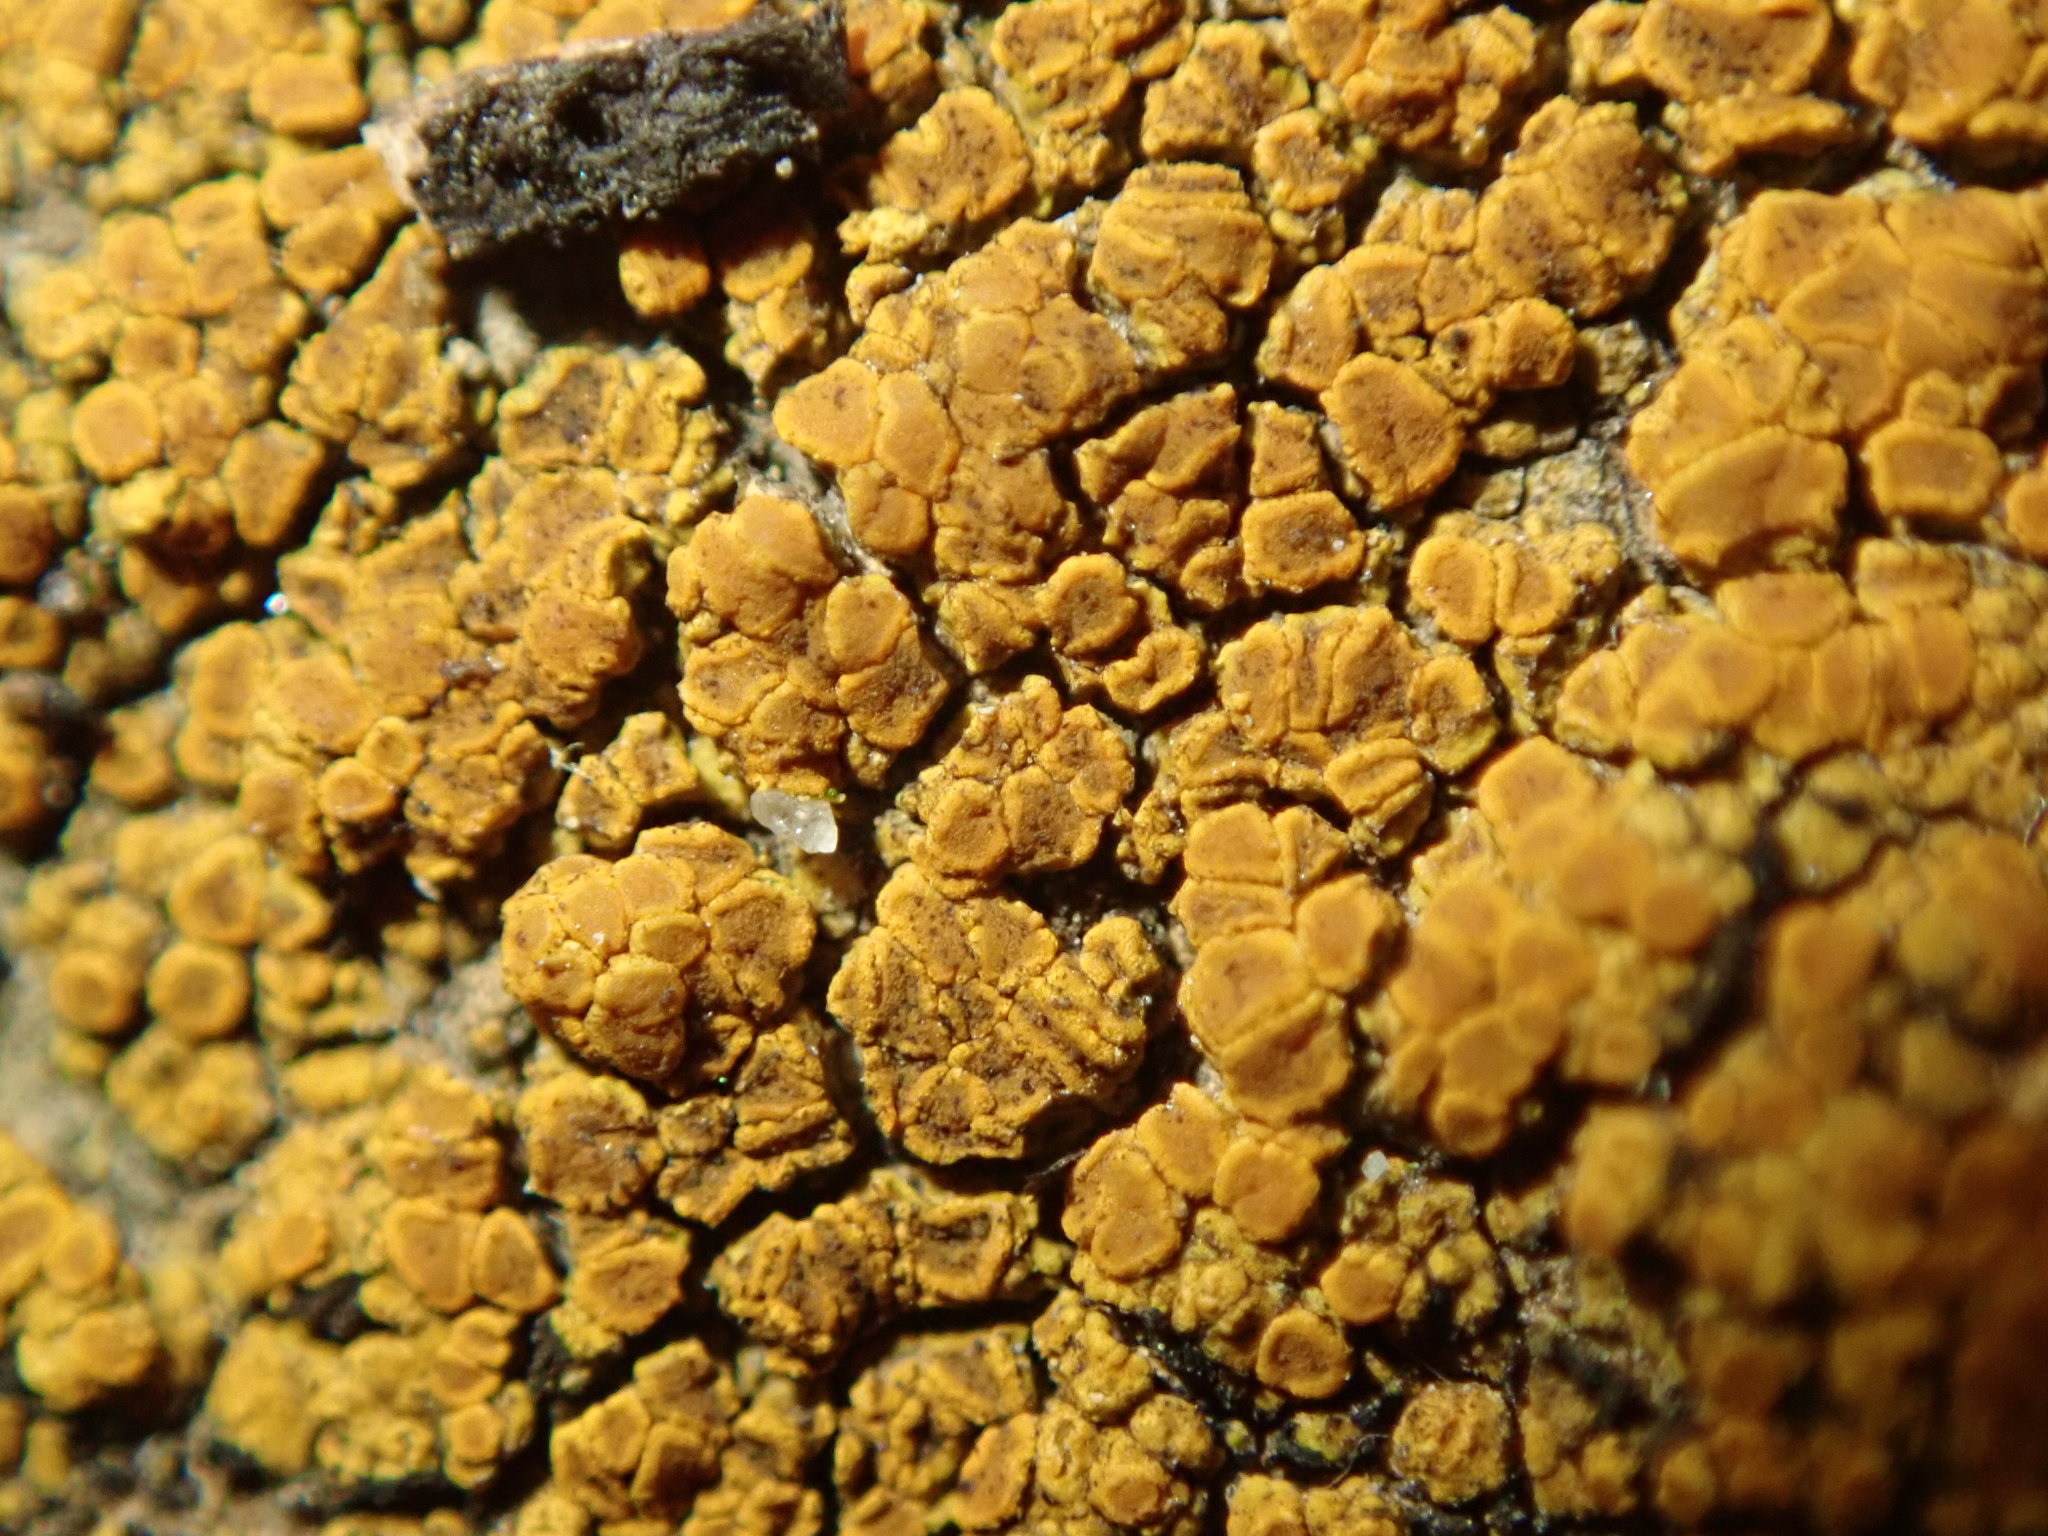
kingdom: Fungi
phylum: Ascomycota
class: Lecanoromycetes
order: Teloschistales
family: Teloschistaceae
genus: Xanthocarpia
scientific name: Xanthocarpia feracissima
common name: Sidewalk firedot
